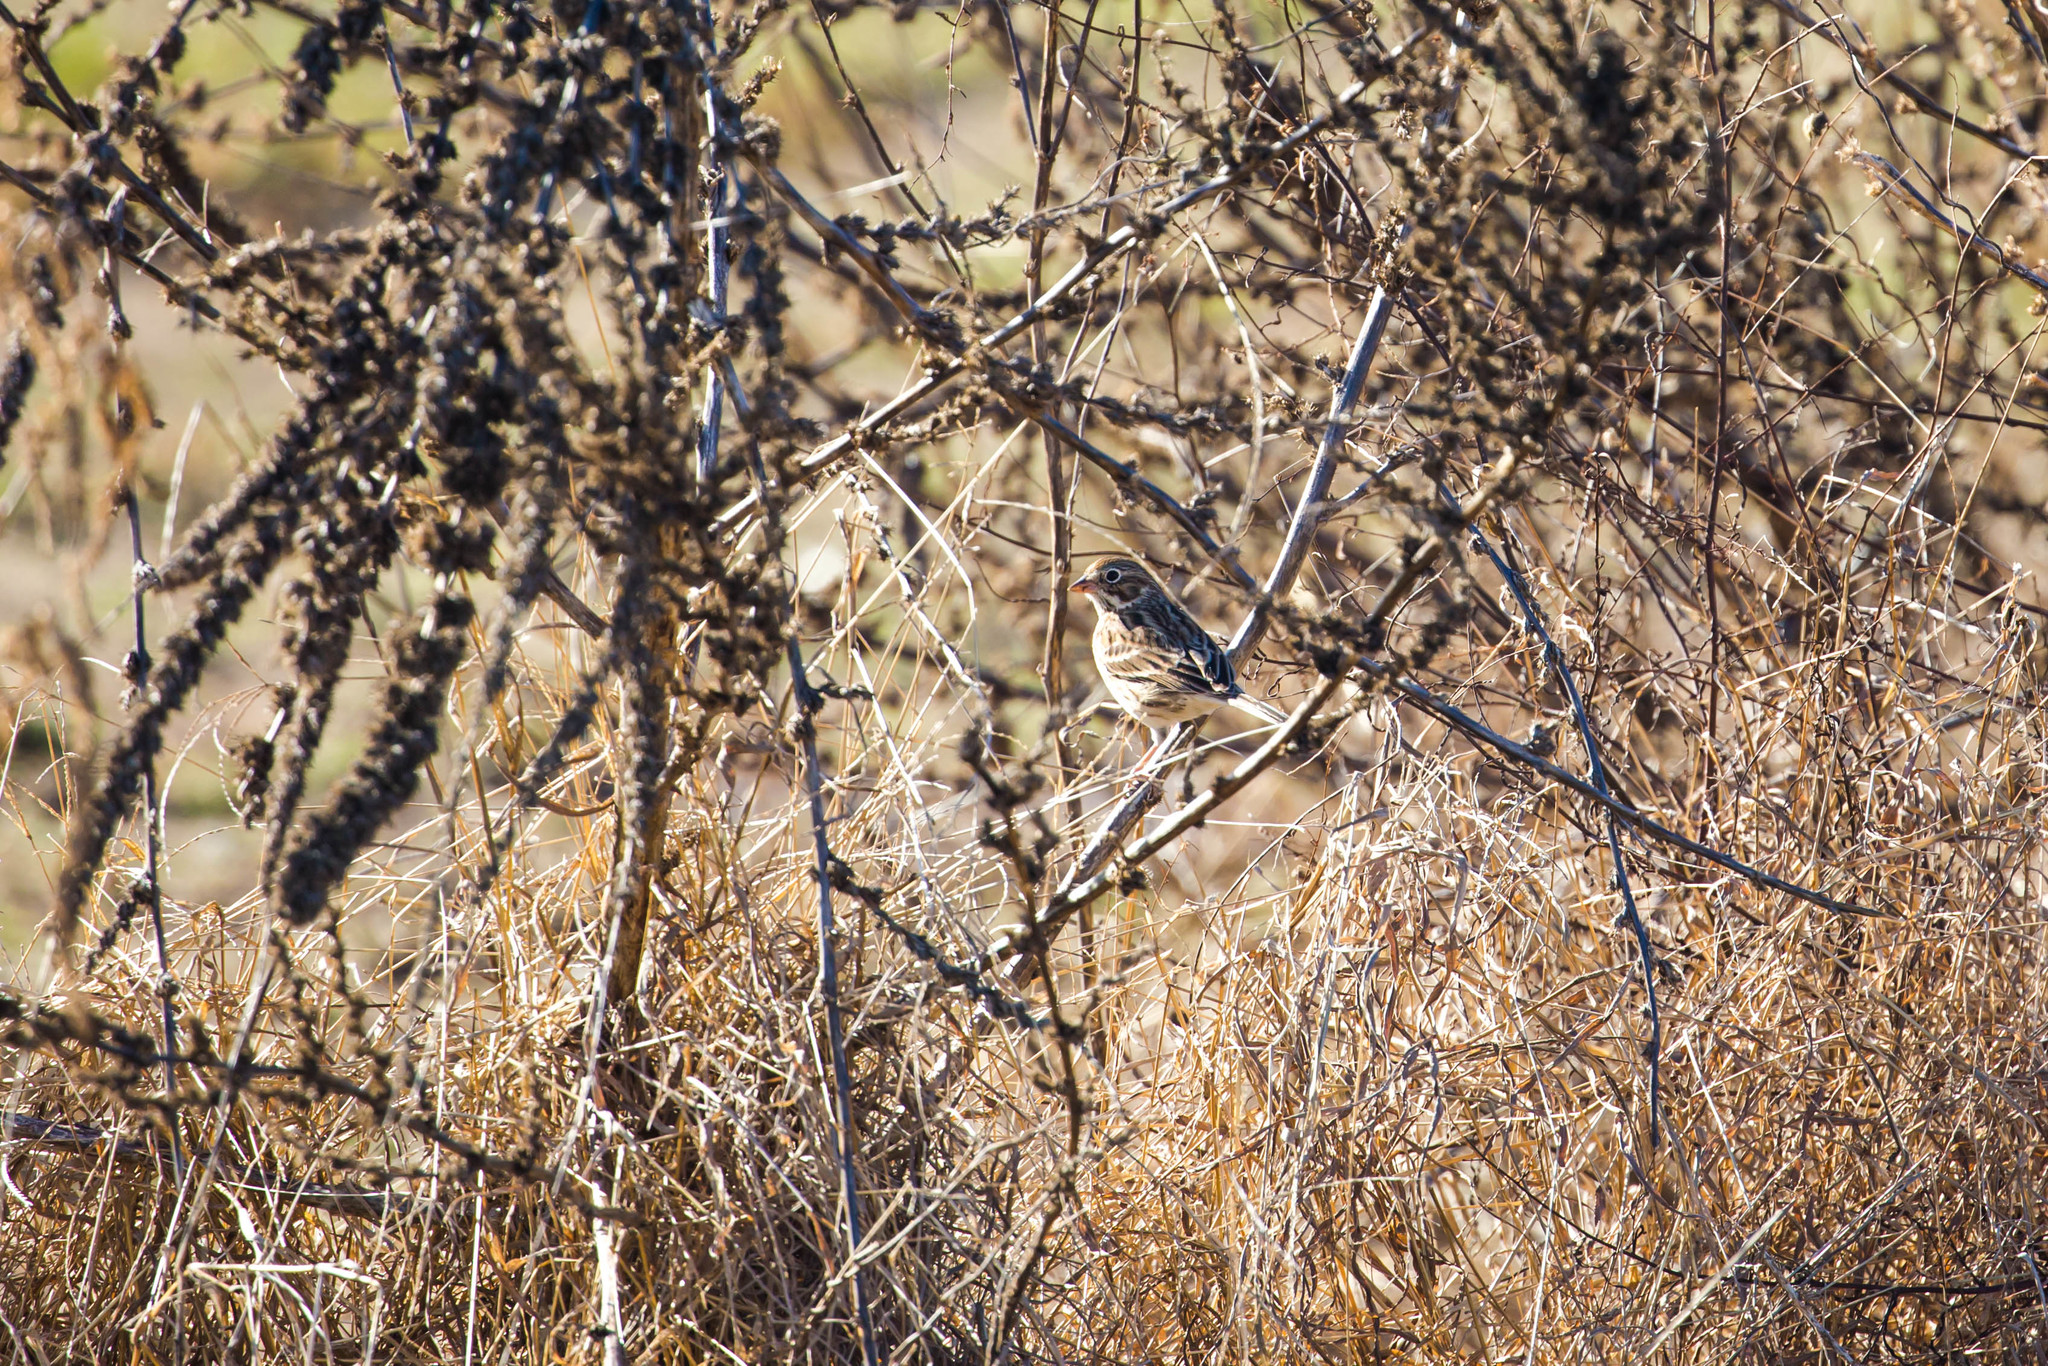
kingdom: Animalia
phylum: Chordata
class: Aves
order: Passeriformes
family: Passerellidae
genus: Pooecetes
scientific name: Pooecetes gramineus
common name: Vesper sparrow
